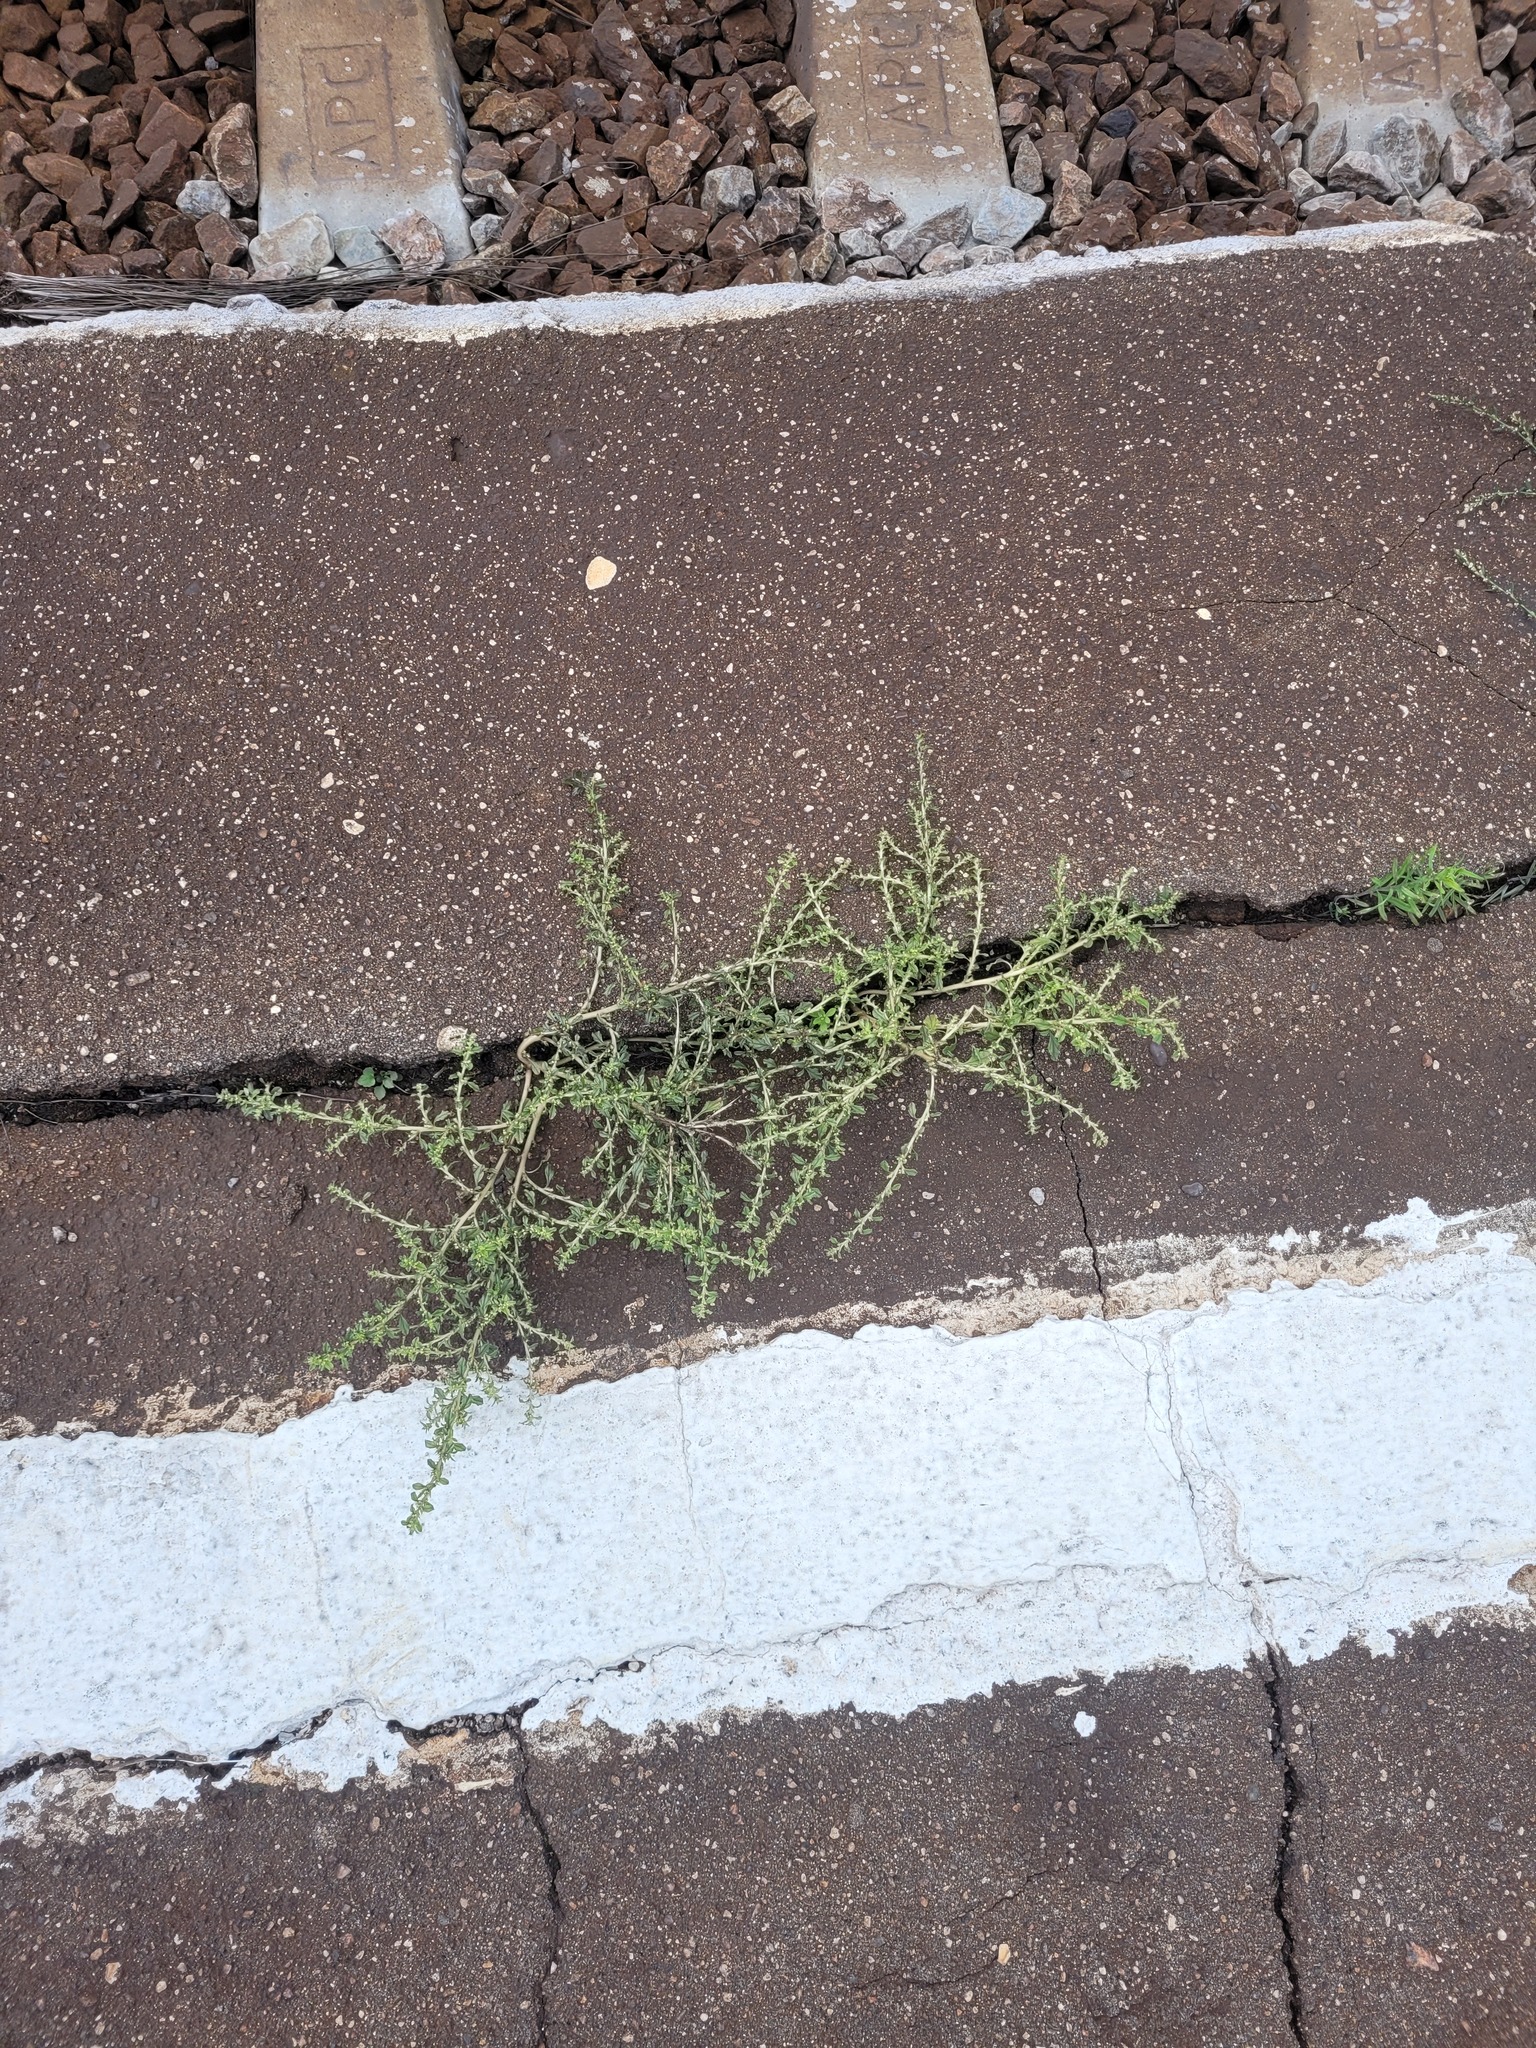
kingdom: Plantae
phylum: Tracheophyta
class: Magnoliopsida
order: Caryophyllales
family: Amaranthaceae
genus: Amaranthus
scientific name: Amaranthus albus
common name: White pigweed
